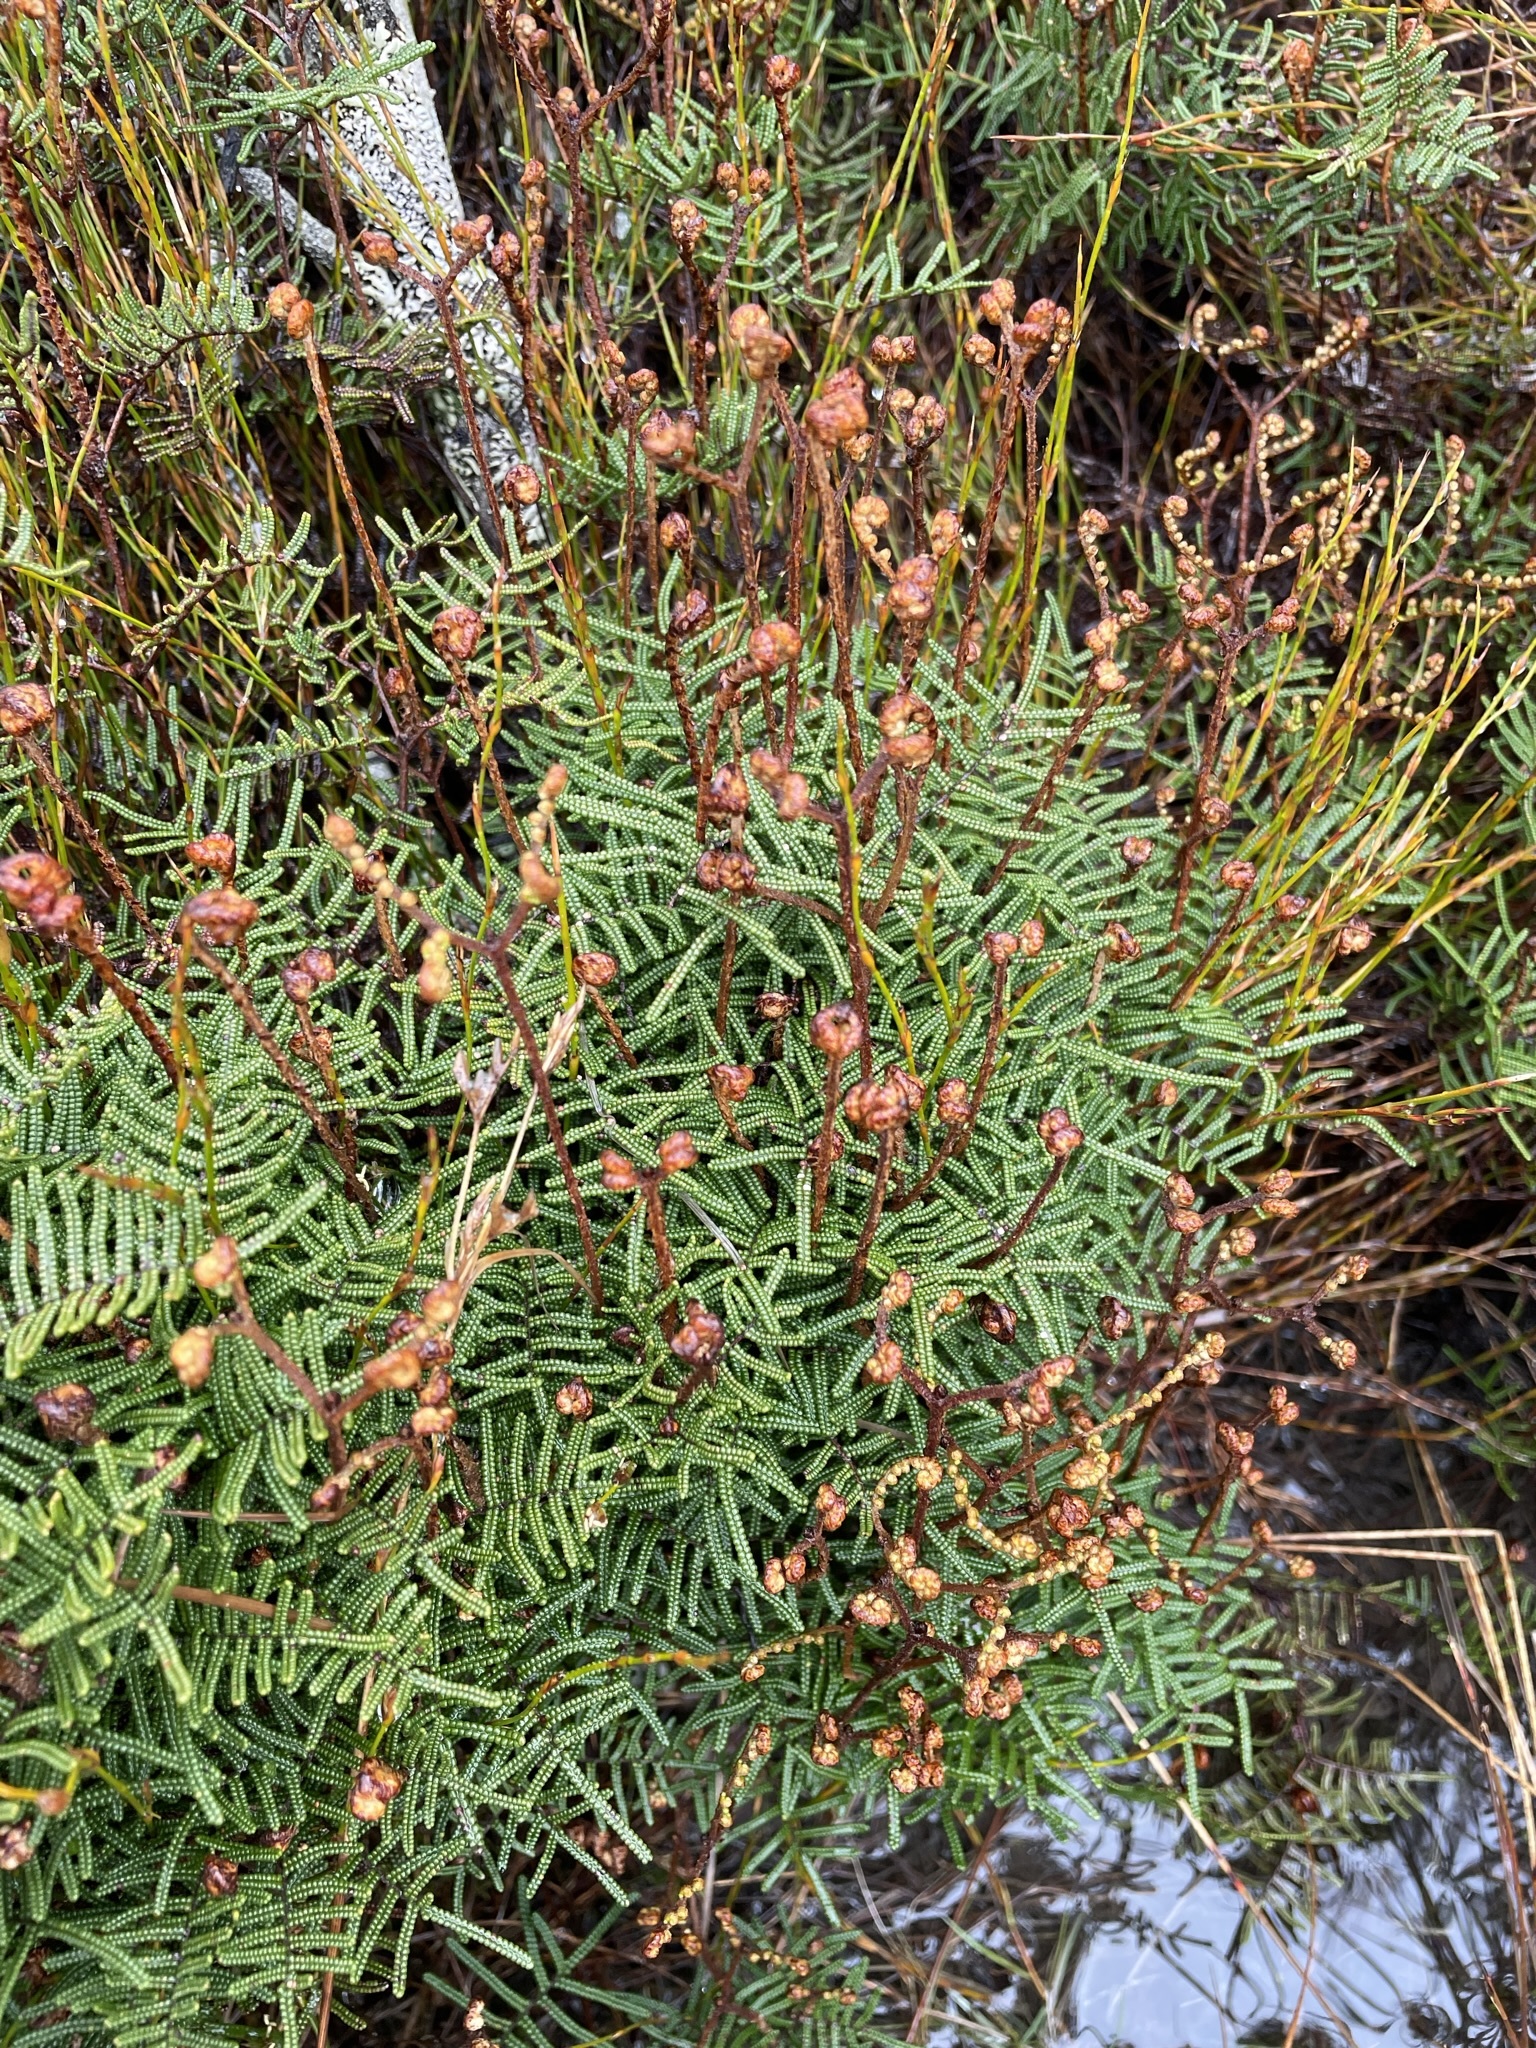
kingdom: Plantae
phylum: Tracheophyta
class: Polypodiopsida
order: Gleicheniales
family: Gleicheniaceae
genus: Gleichenia
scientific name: Gleichenia alpina
